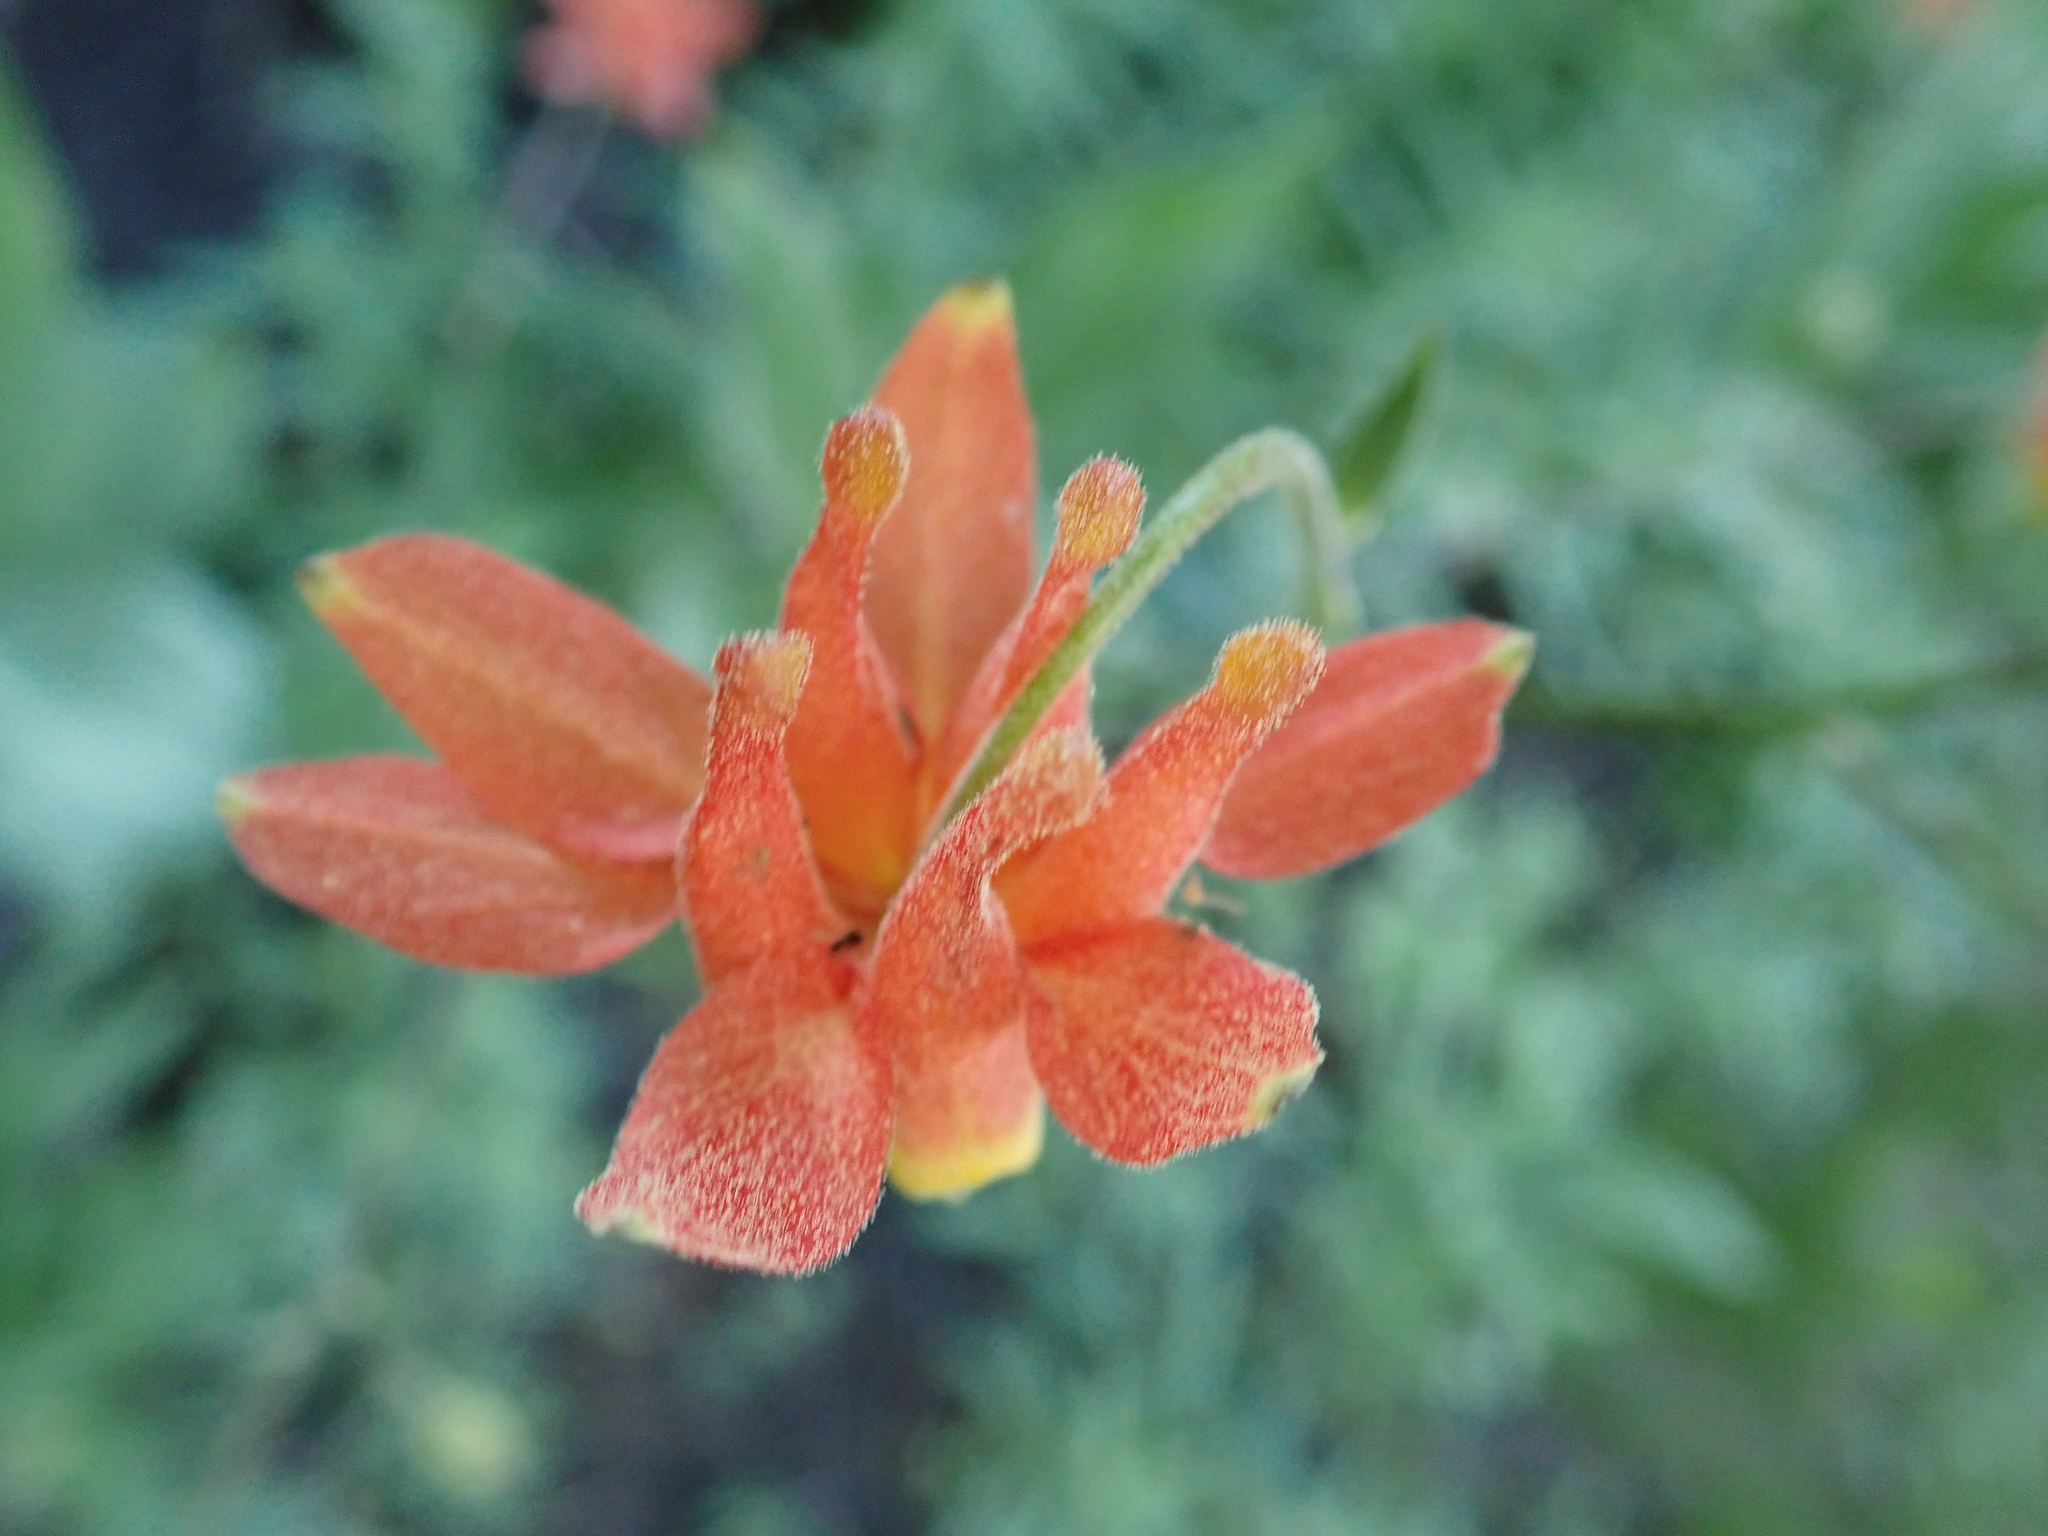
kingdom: Plantae
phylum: Tracheophyta
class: Magnoliopsida
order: Ranunculales
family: Ranunculaceae
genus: Aquilegia
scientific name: Aquilegia formosa
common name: Sitka columbine
